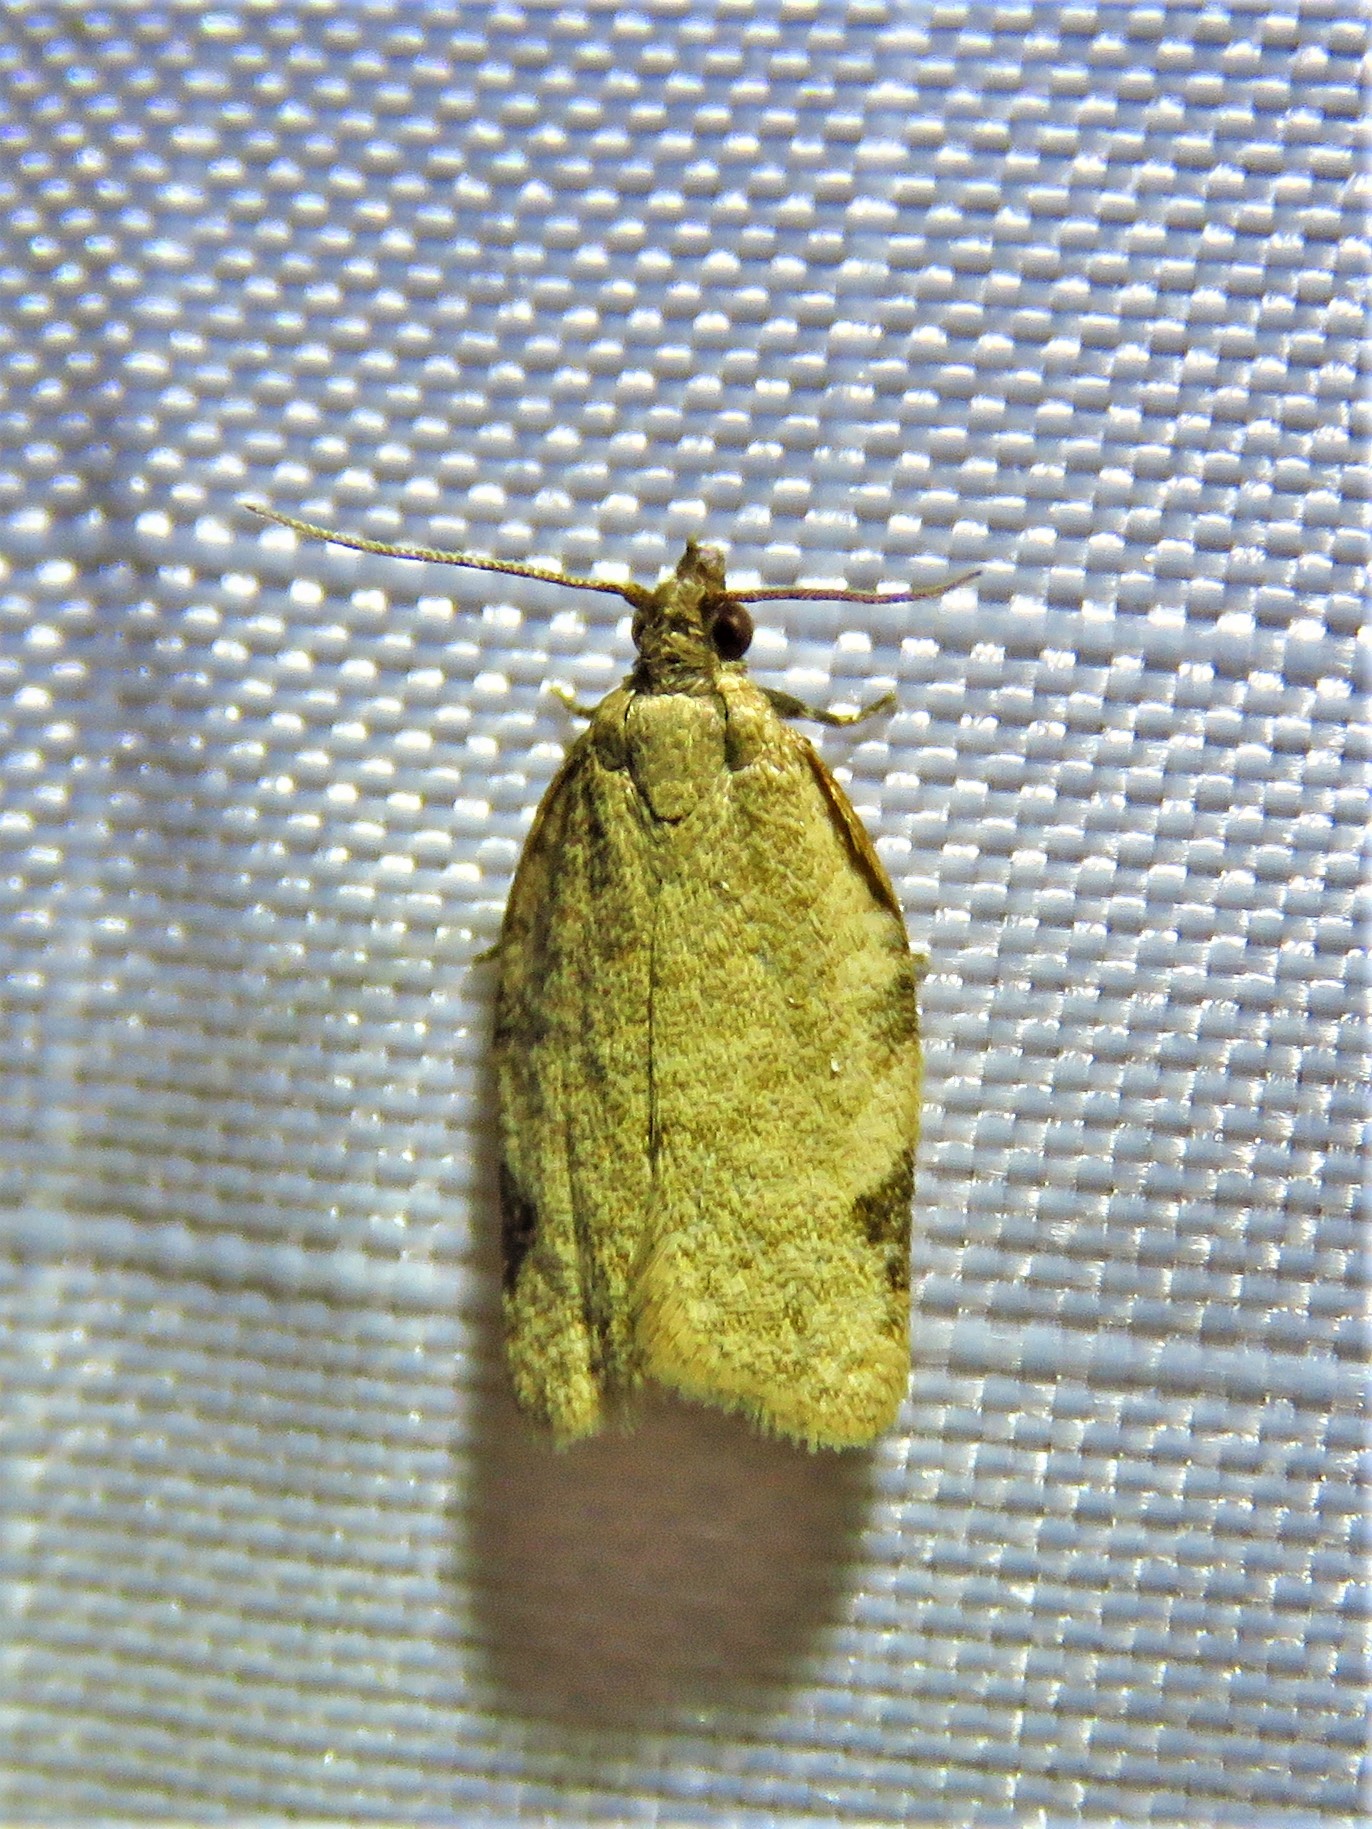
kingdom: Animalia
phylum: Arthropoda
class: Insecta
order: Lepidoptera
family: Tortricidae
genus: Clepsis
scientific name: Clepsis virescana
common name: Greenish apple moth
